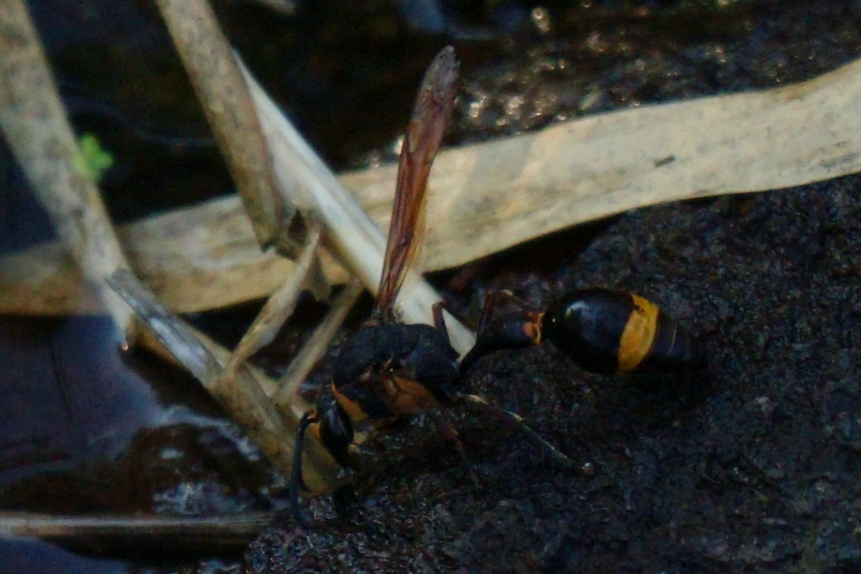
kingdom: Animalia
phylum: Arthropoda
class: Insecta
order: Hymenoptera
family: Eumenidae
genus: Oreumenes
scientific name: Oreumenes decoratus
